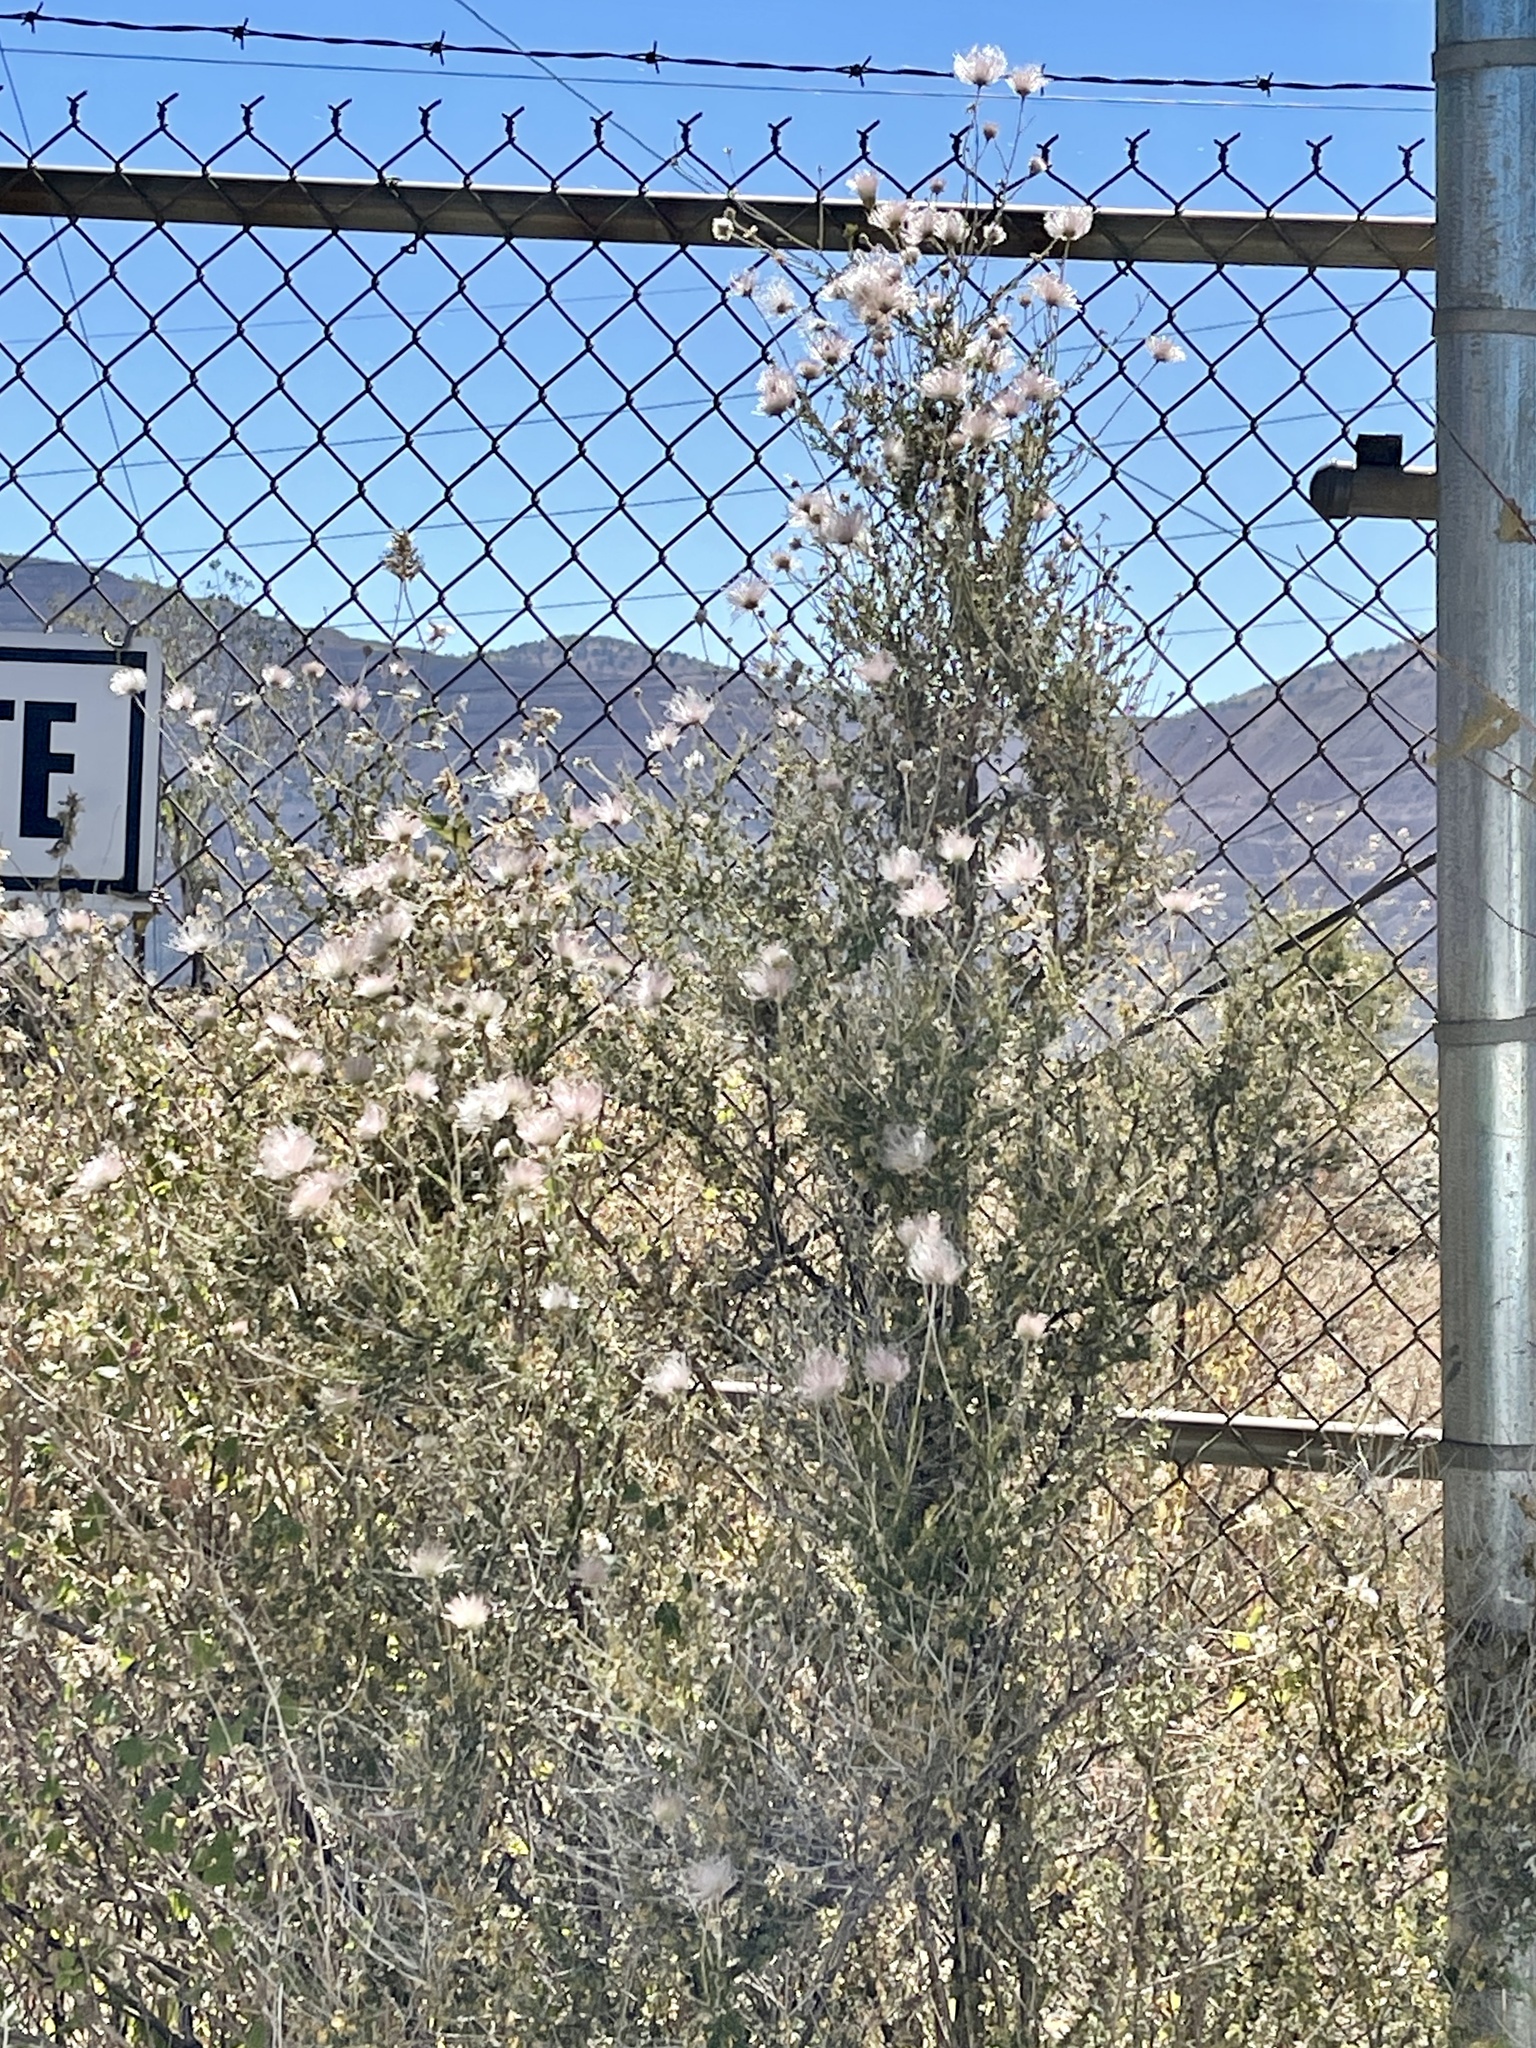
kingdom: Plantae
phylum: Tracheophyta
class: Magnoliopsida
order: Rosales
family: Rosaceae
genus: Fallugia
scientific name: Fallugia paradoxa
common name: Apache-plume
